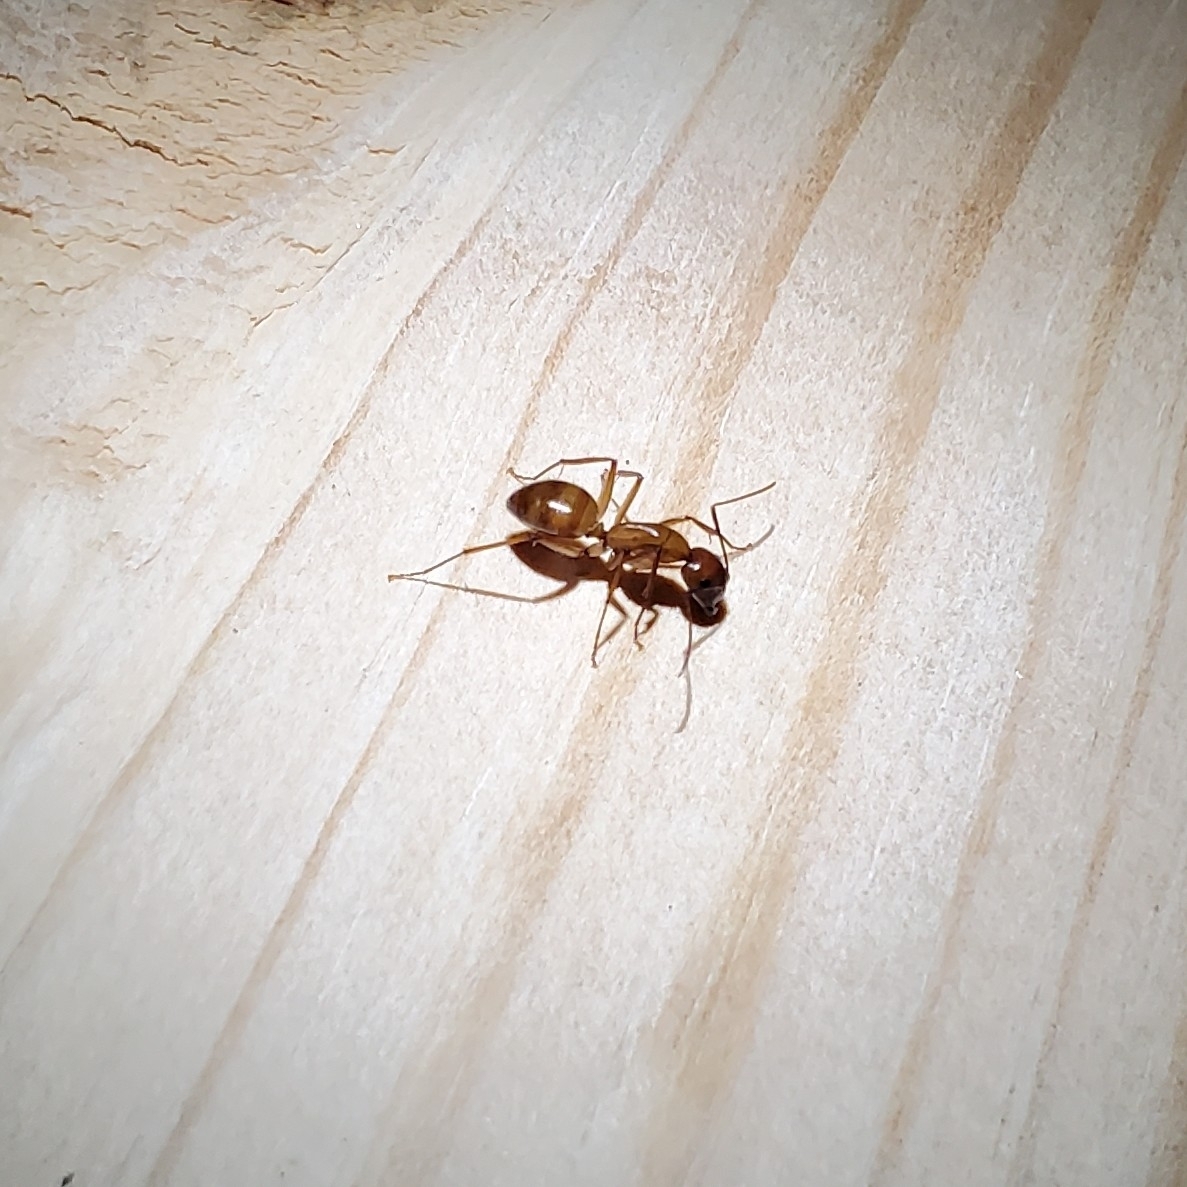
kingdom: Animalia
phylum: Arthropoda
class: Insecta
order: Hymenoptera
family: Formicidae
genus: Camponotus
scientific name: Camponotus castaneus
